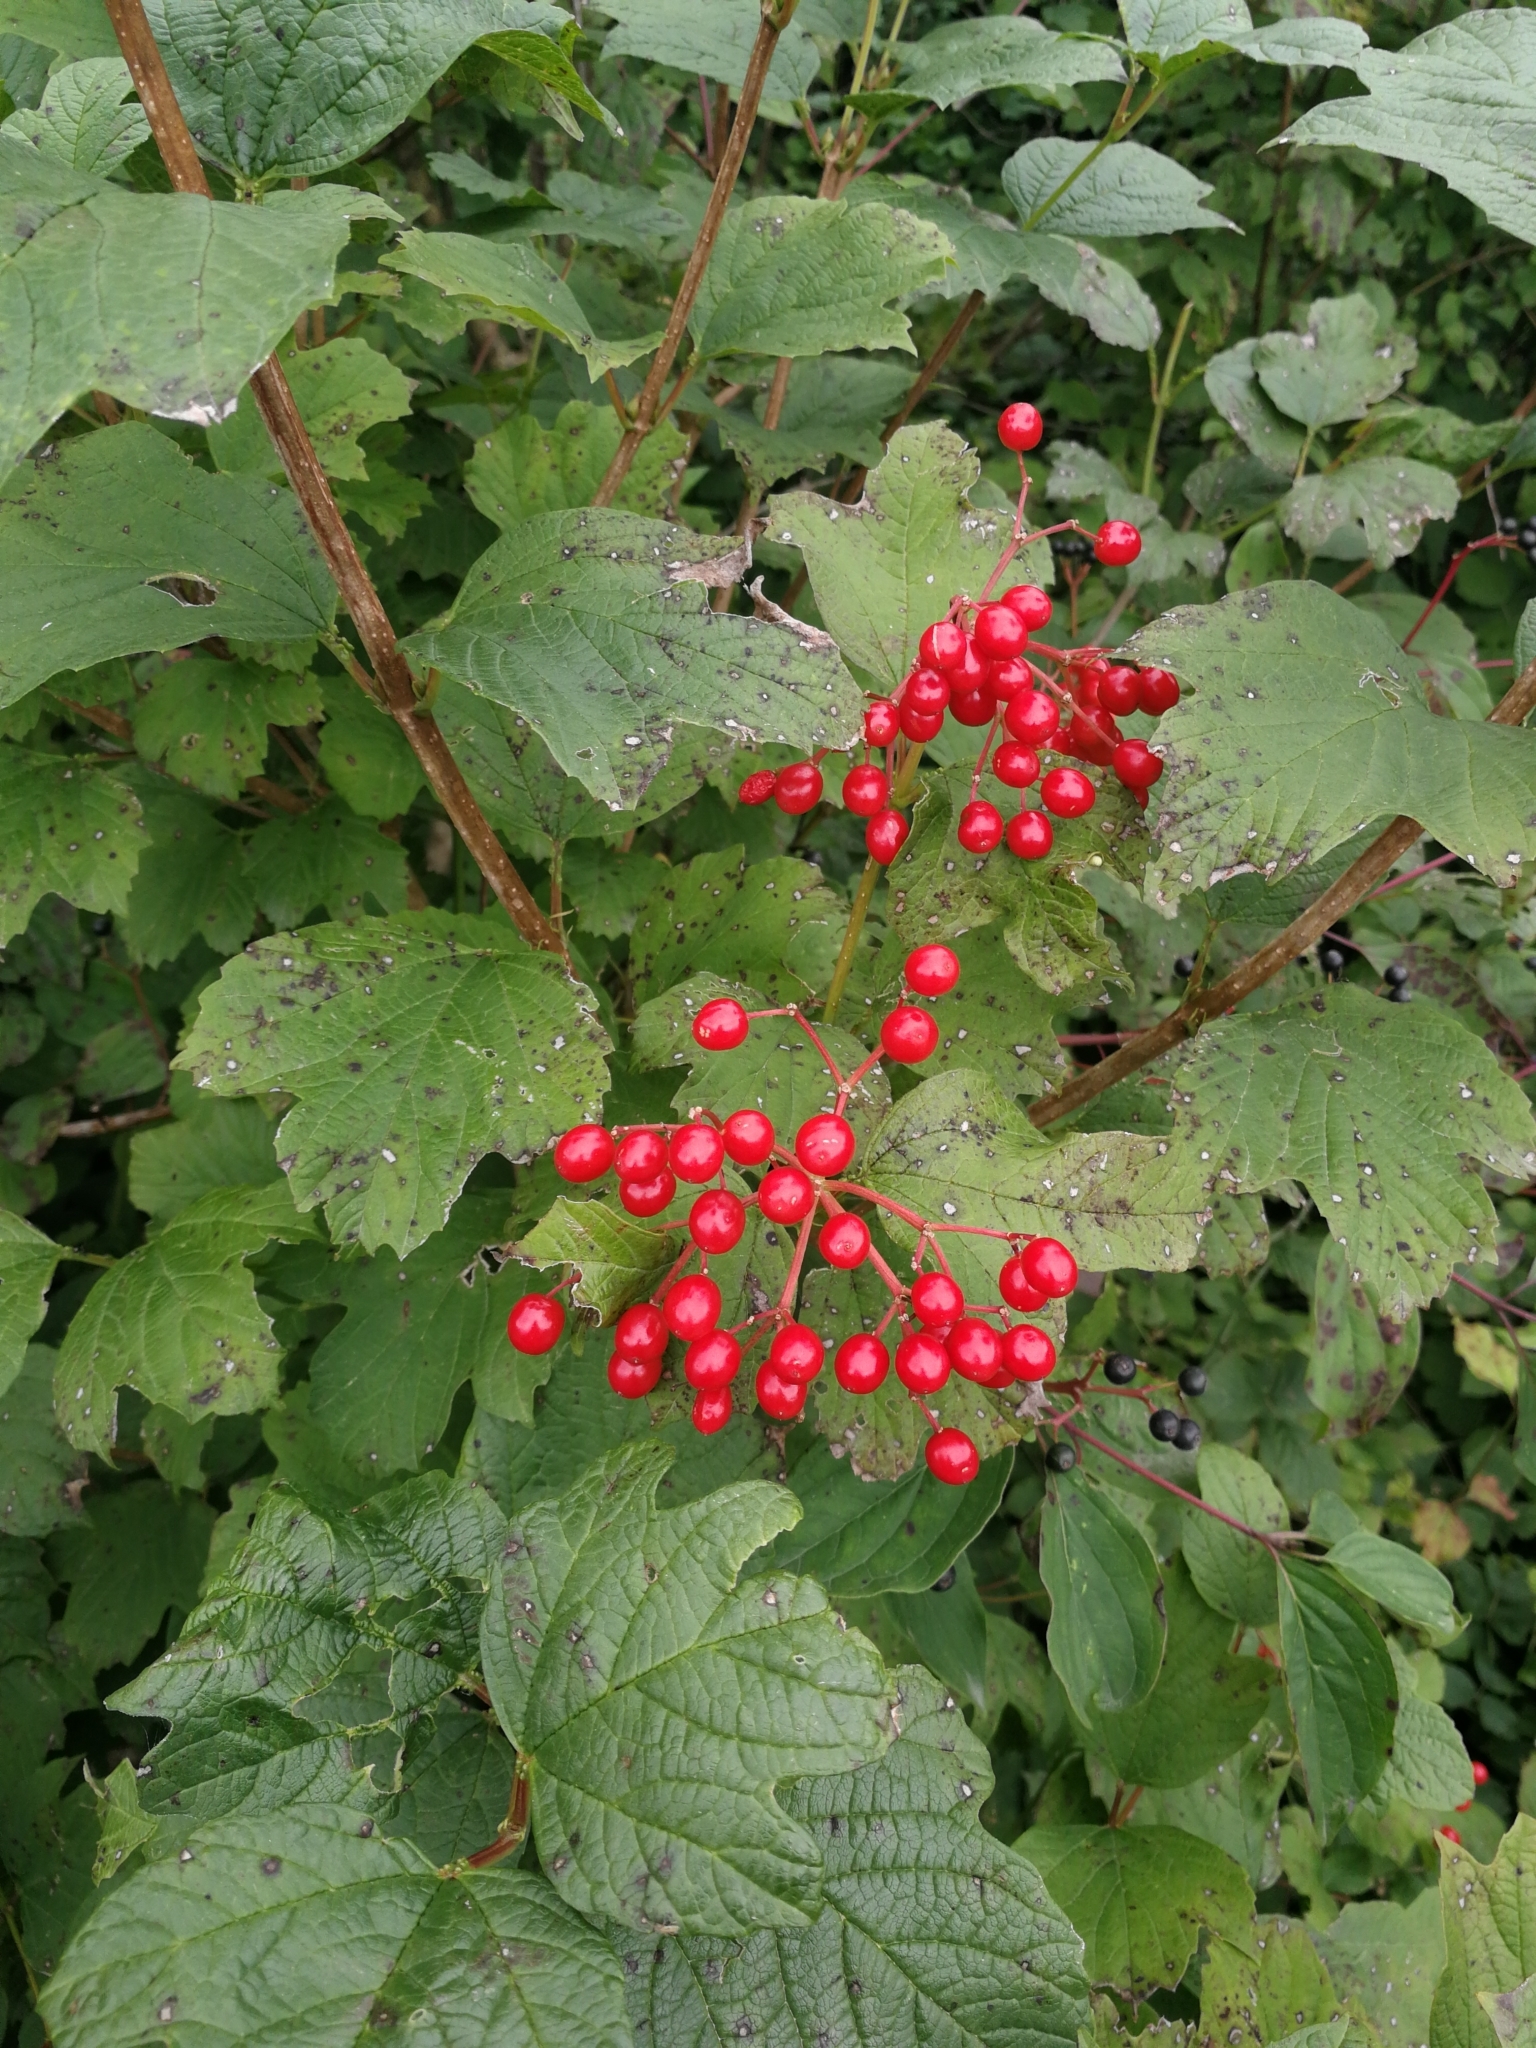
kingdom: Plantae
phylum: Tracheophyta
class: Magnoliopsida
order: Dipsacales
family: Viburnaceae
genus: Viburnum
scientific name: Viburnum opulus
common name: Guelder-rose
